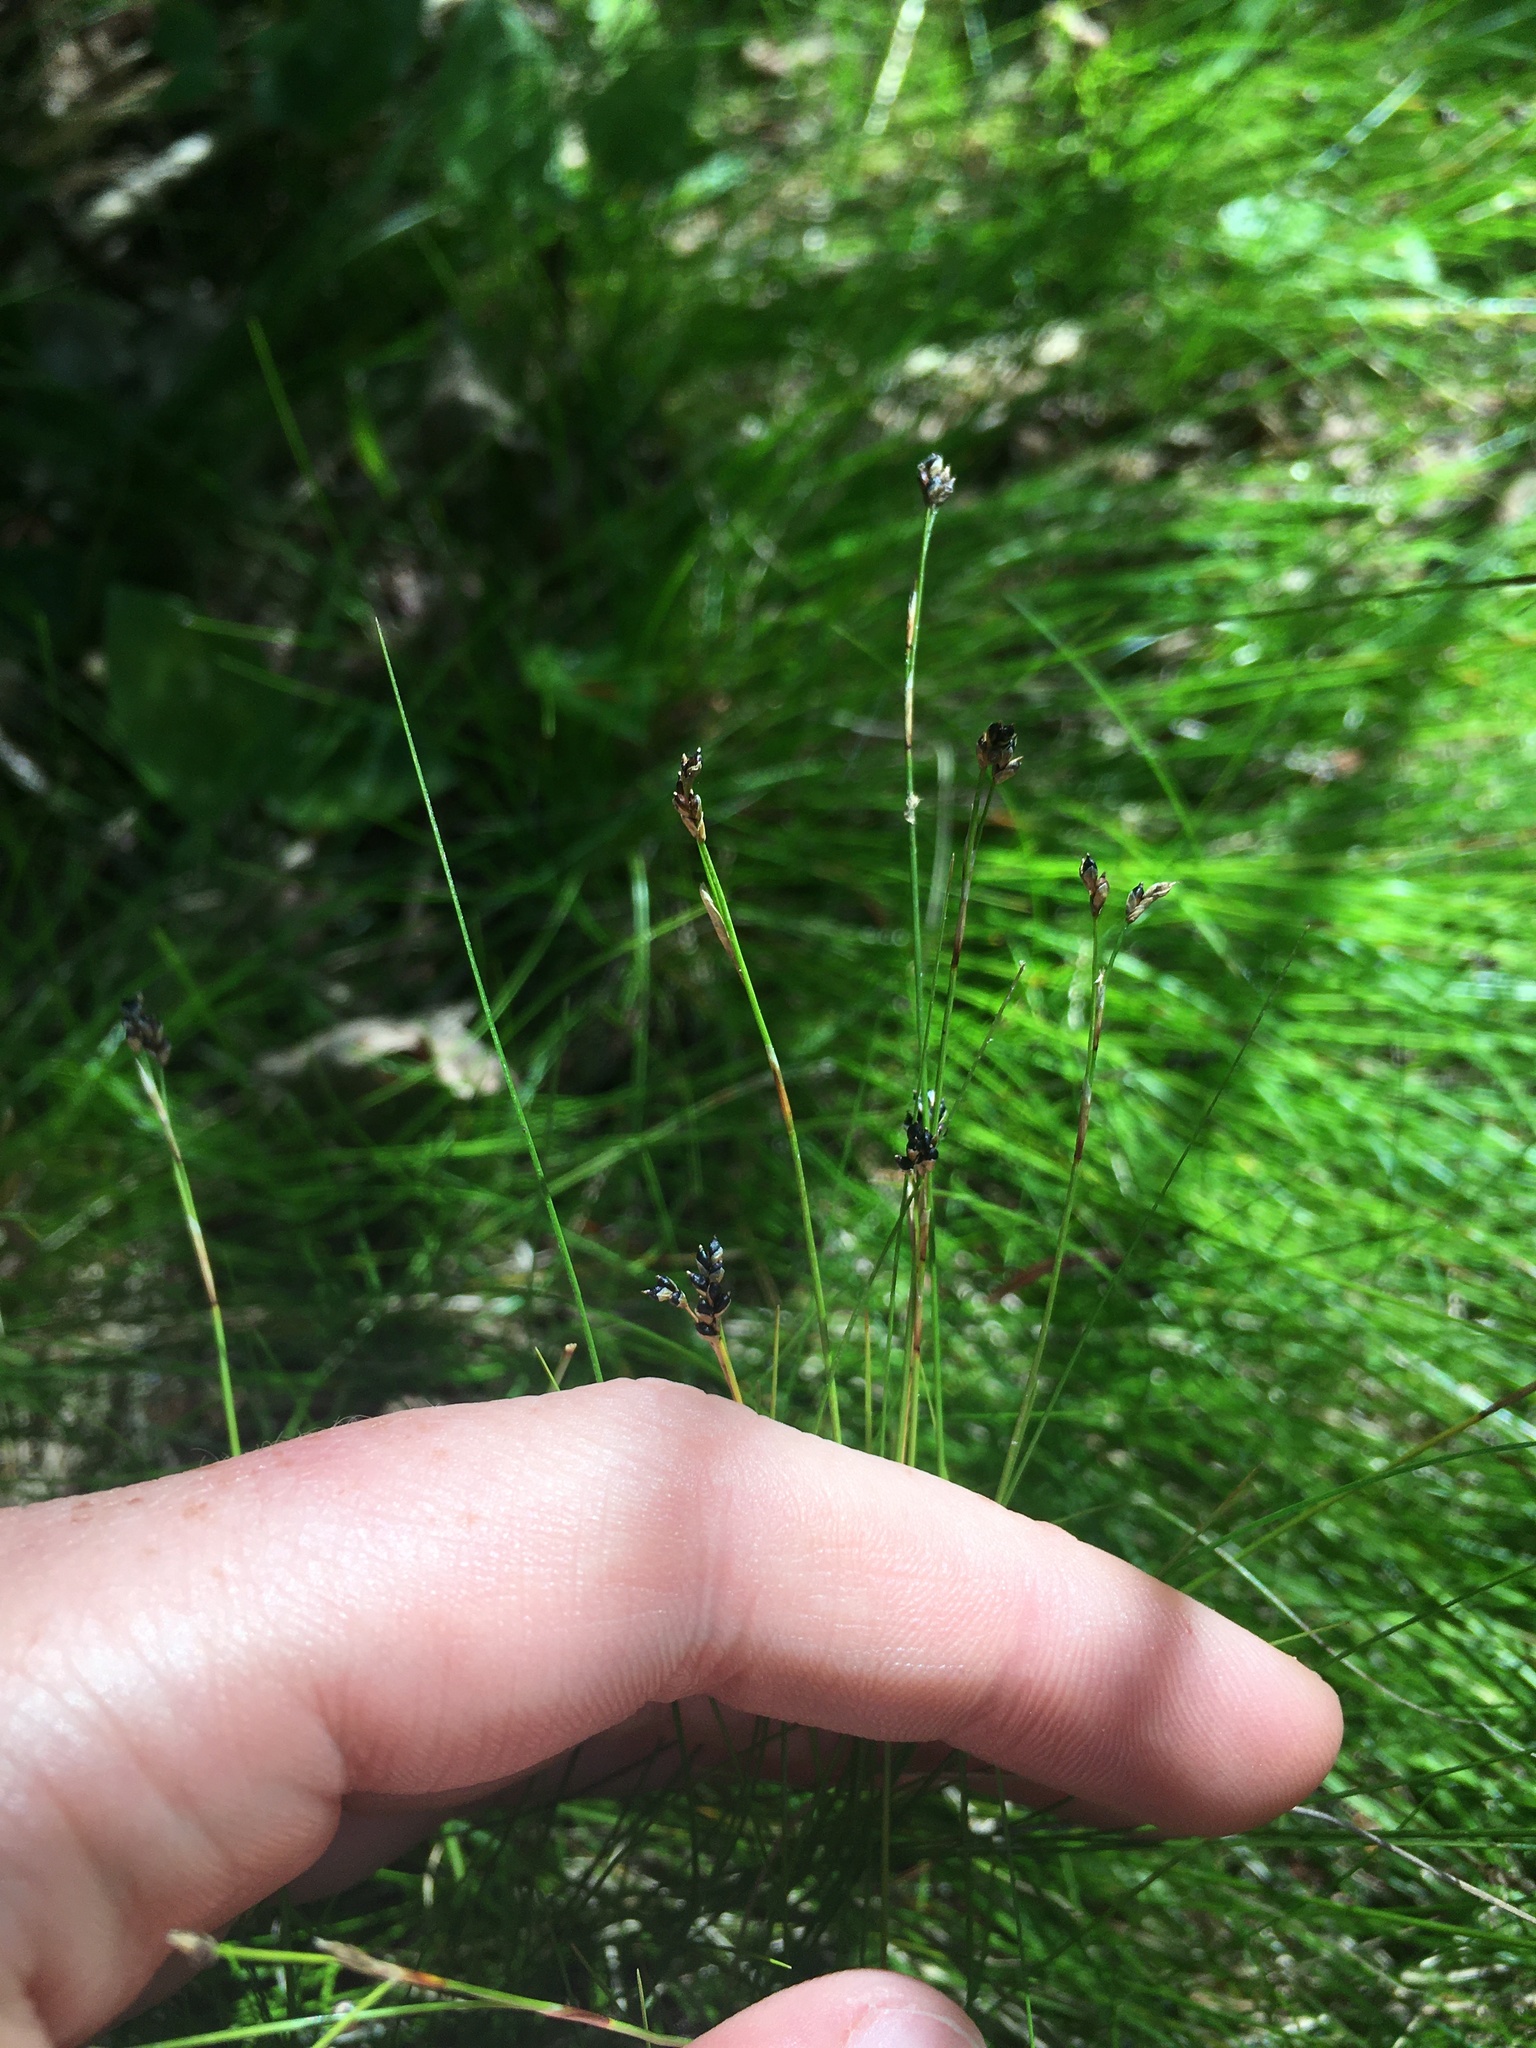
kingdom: Plantae
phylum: Tracheophyta
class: Liliopsida
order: Poales
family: Cyperaceae
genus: Carex
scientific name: Carex eburnea
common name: Bristle-leaved sedge
